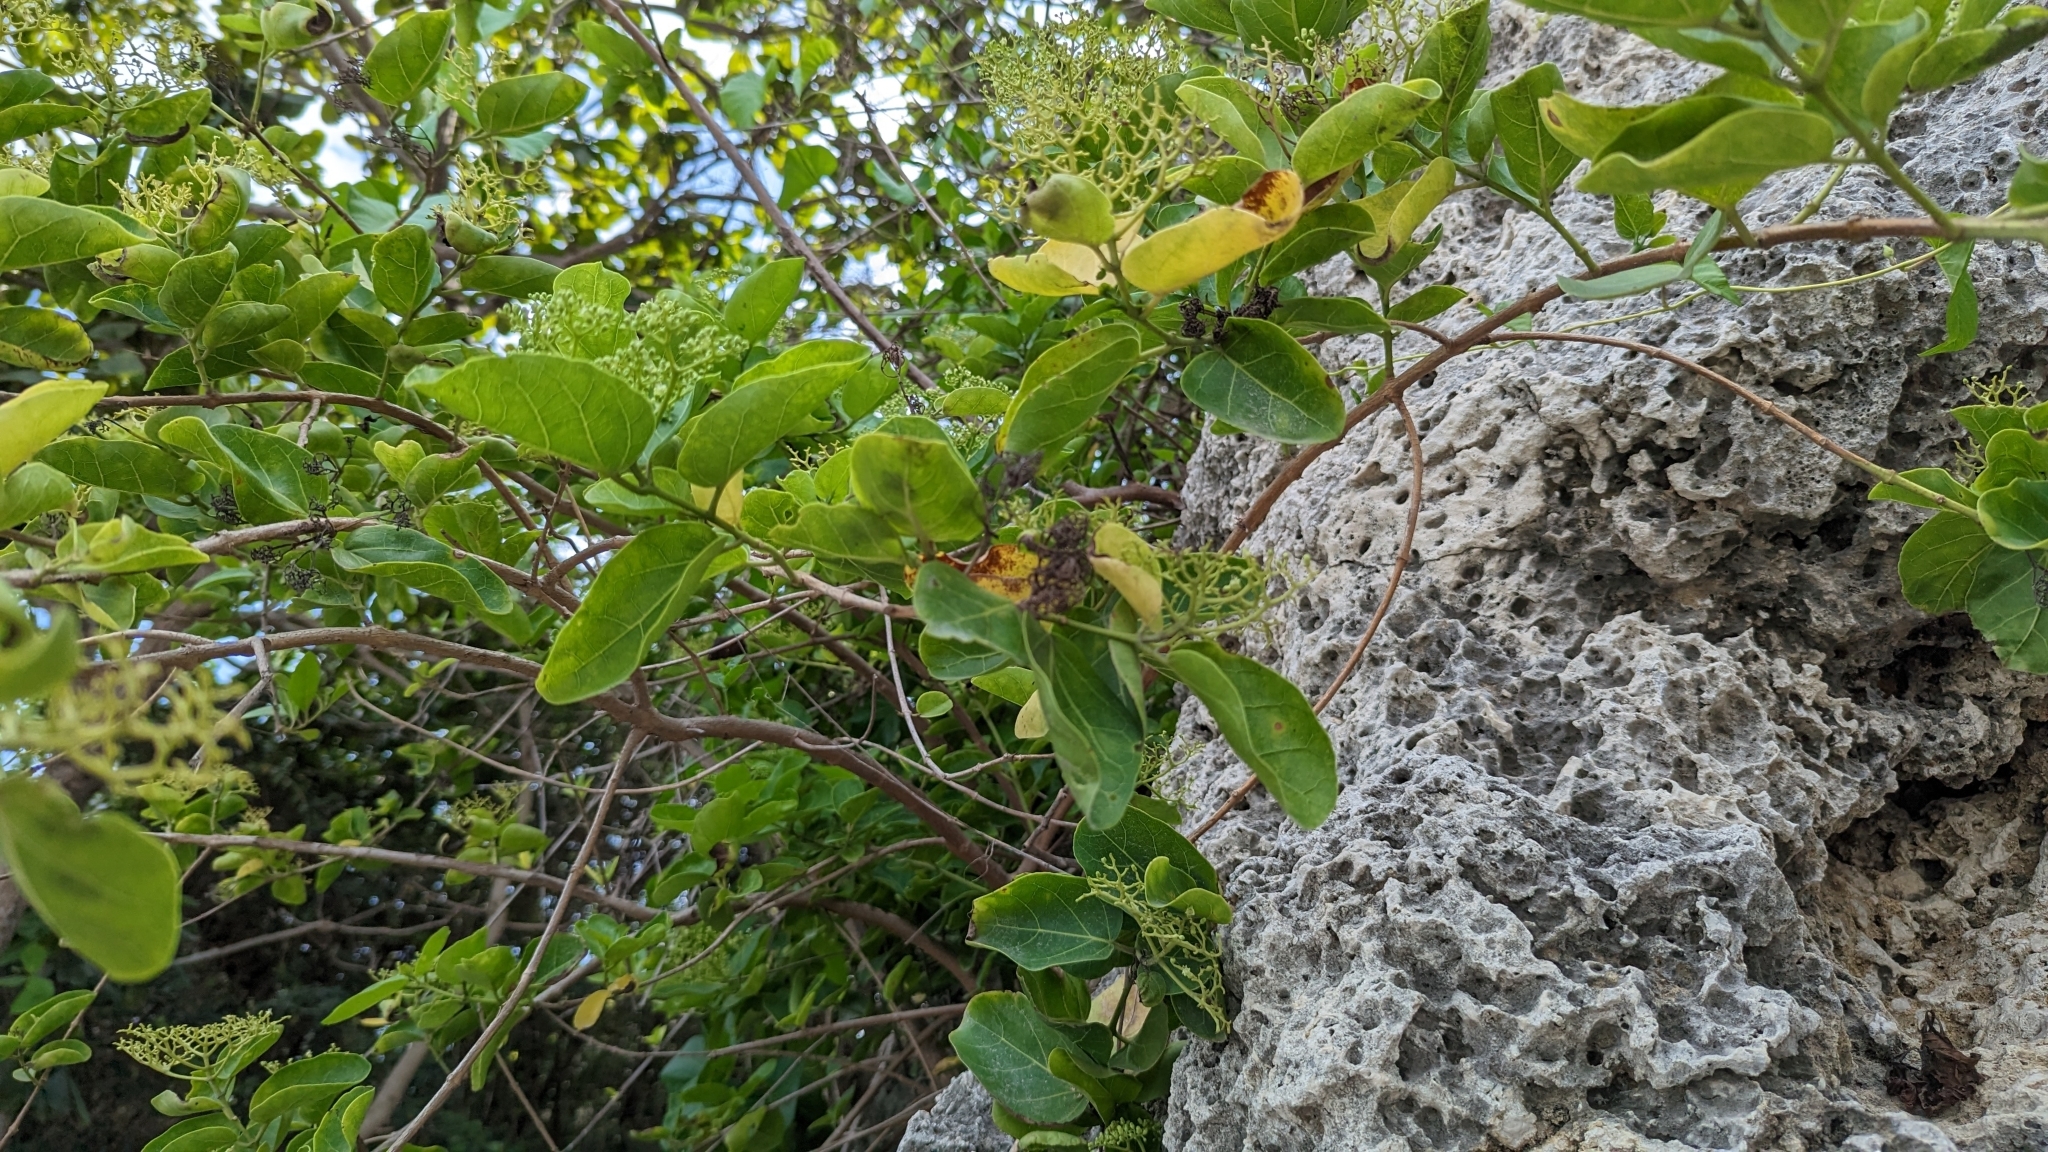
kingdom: Plantae
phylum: Tracheophyta
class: Magnoliopsida
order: Lamiales
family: Lamiaceae
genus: Premna
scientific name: Premna serratifolia
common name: Bastard guelder
